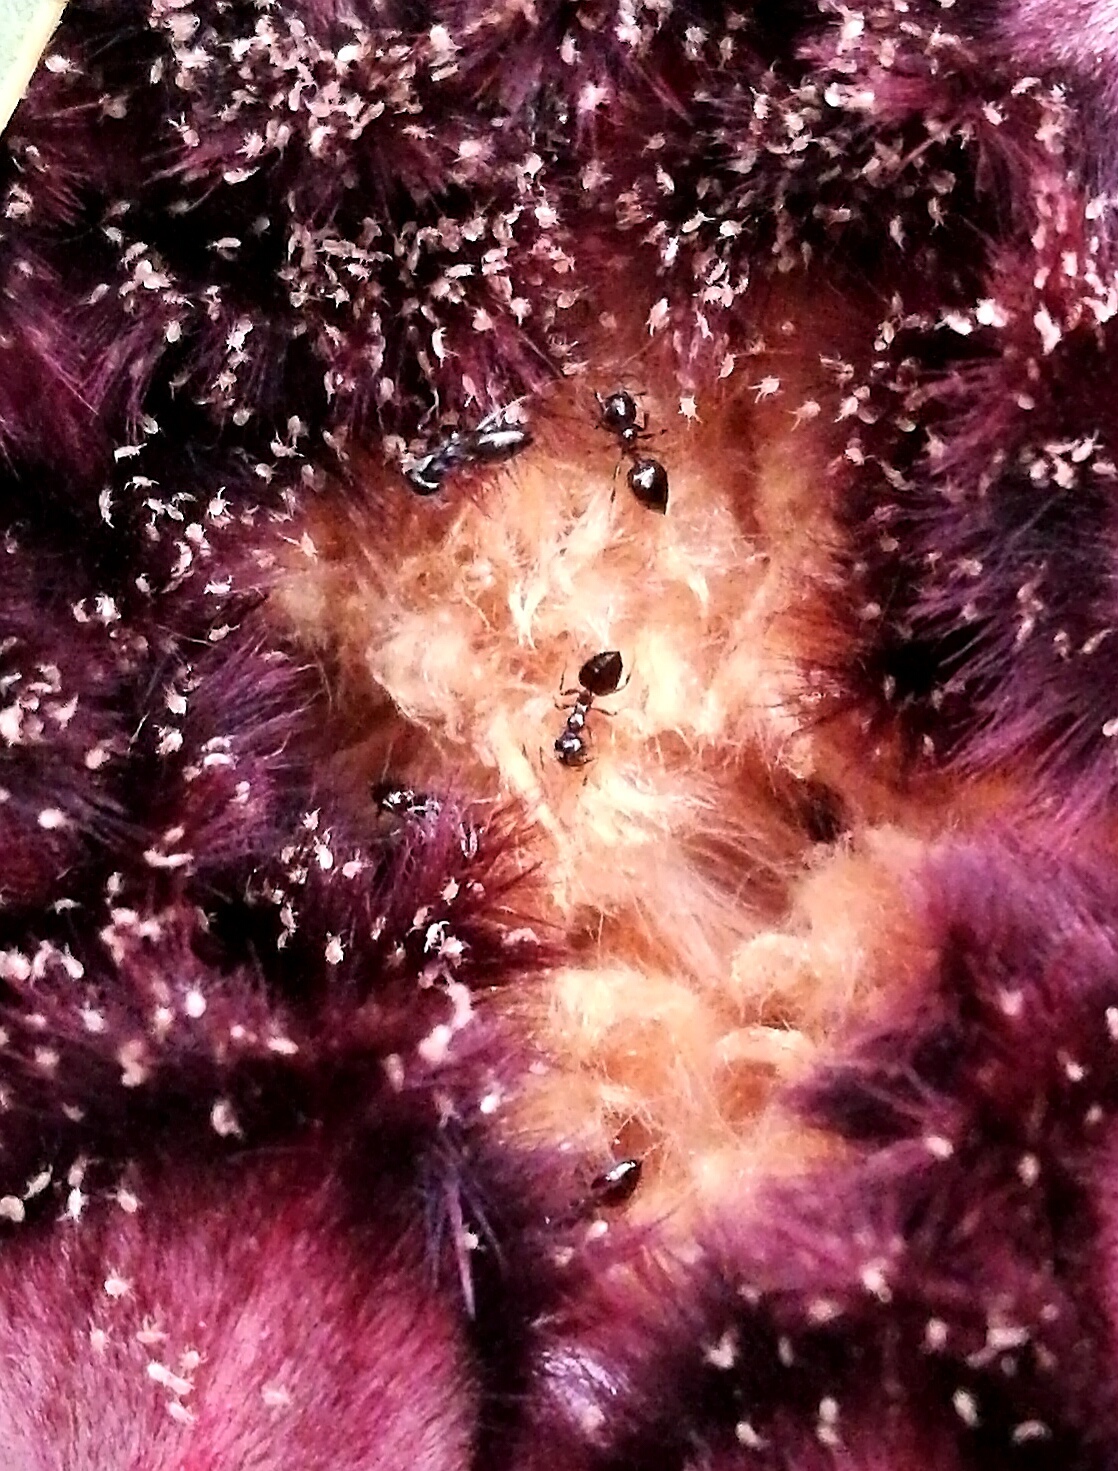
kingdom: Animalia
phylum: Arthropoda
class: Insecta
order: Hymenoptera
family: Formicidae
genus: Crematogaster
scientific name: Crematogaster peringueyi
